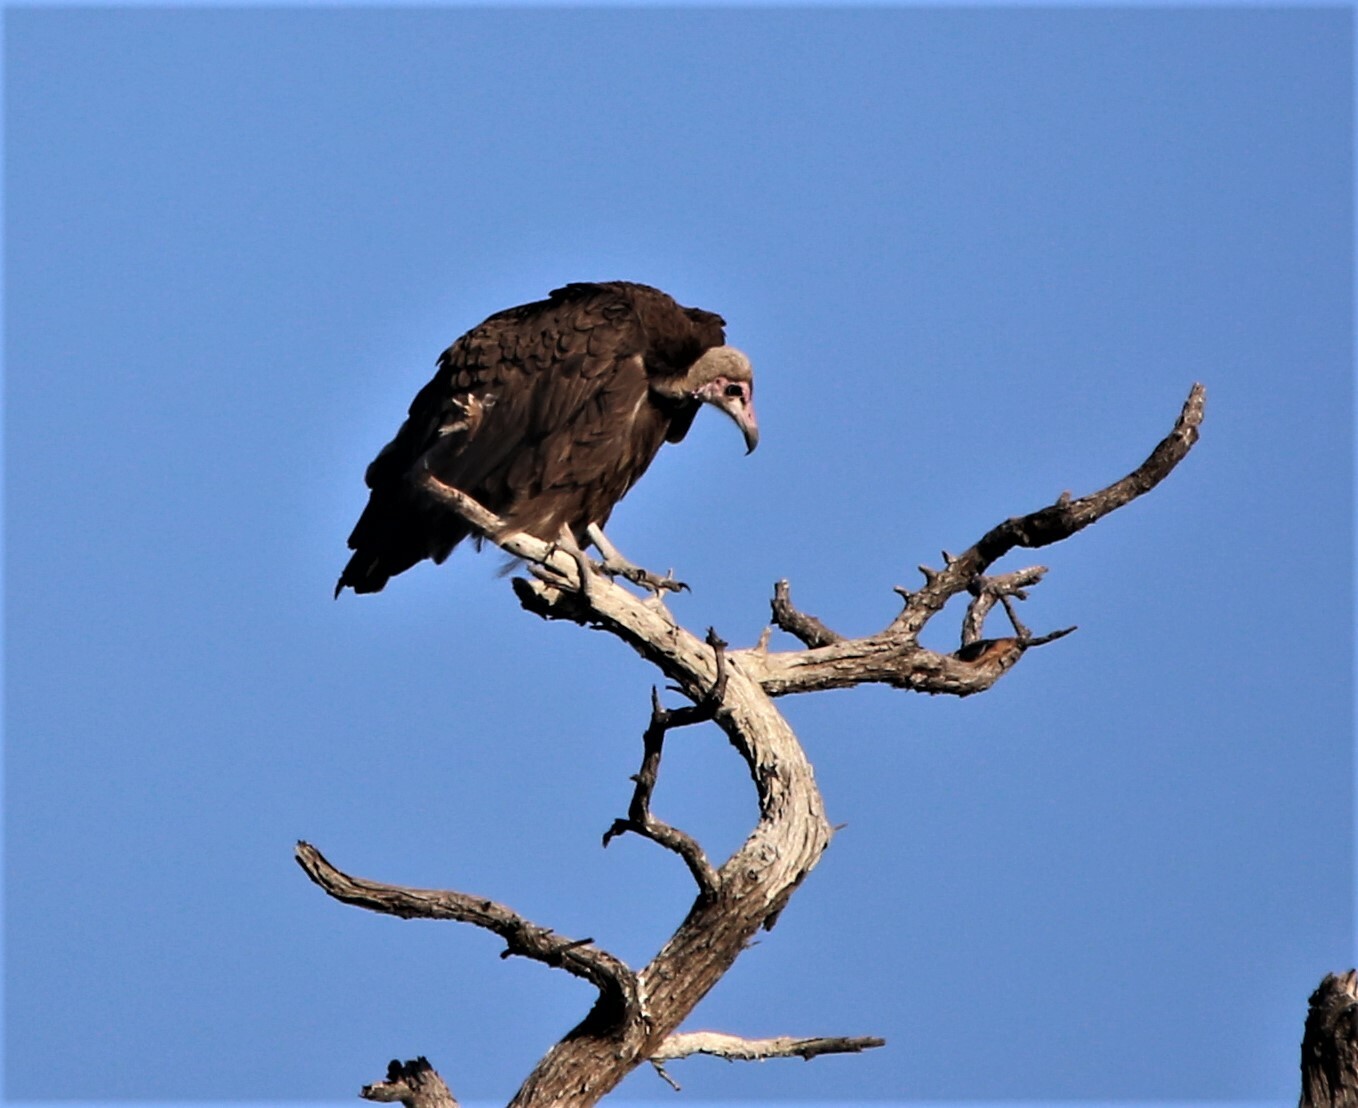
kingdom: Animalia
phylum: Chordata
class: Aves
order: Accipitriformes
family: Accipitridae
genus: Necrosyrtes
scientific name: Necrosyrtes monachus
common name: Hooded vulture
